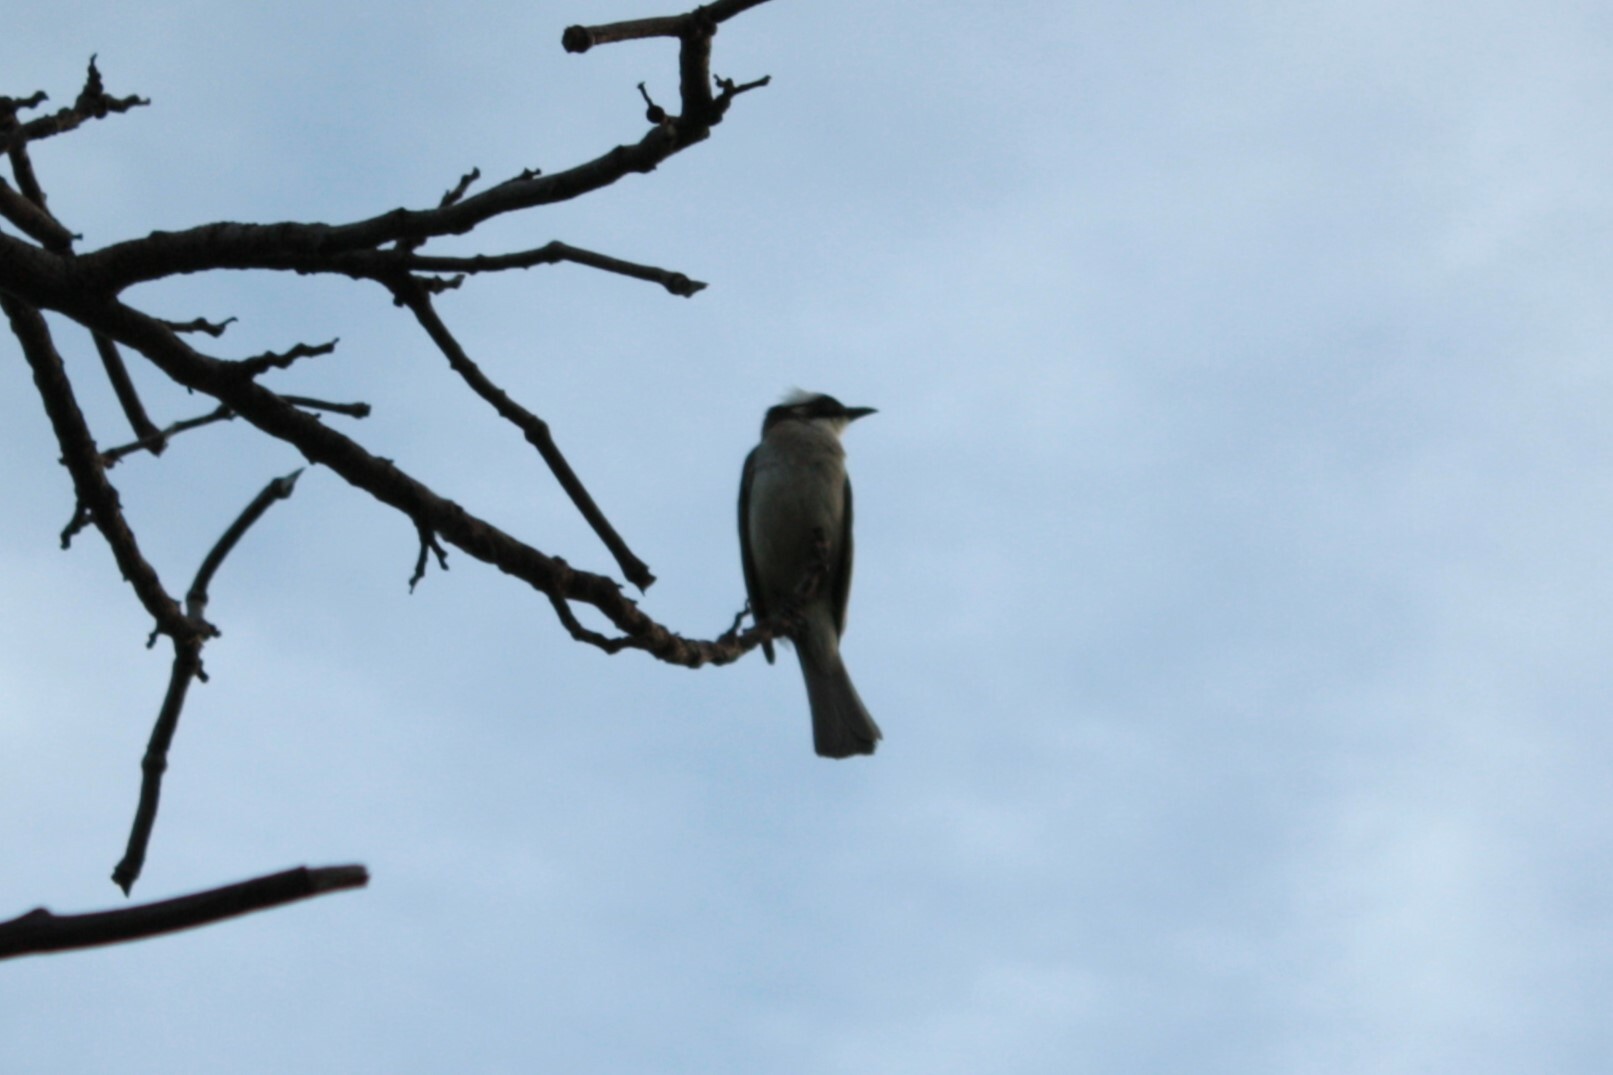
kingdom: Animalia
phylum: Chordata
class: Aves
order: Passeriformes
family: Pycnonotidae
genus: Pycnonotus
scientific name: Pycnonotus sinensis
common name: Light-vented bulbul
